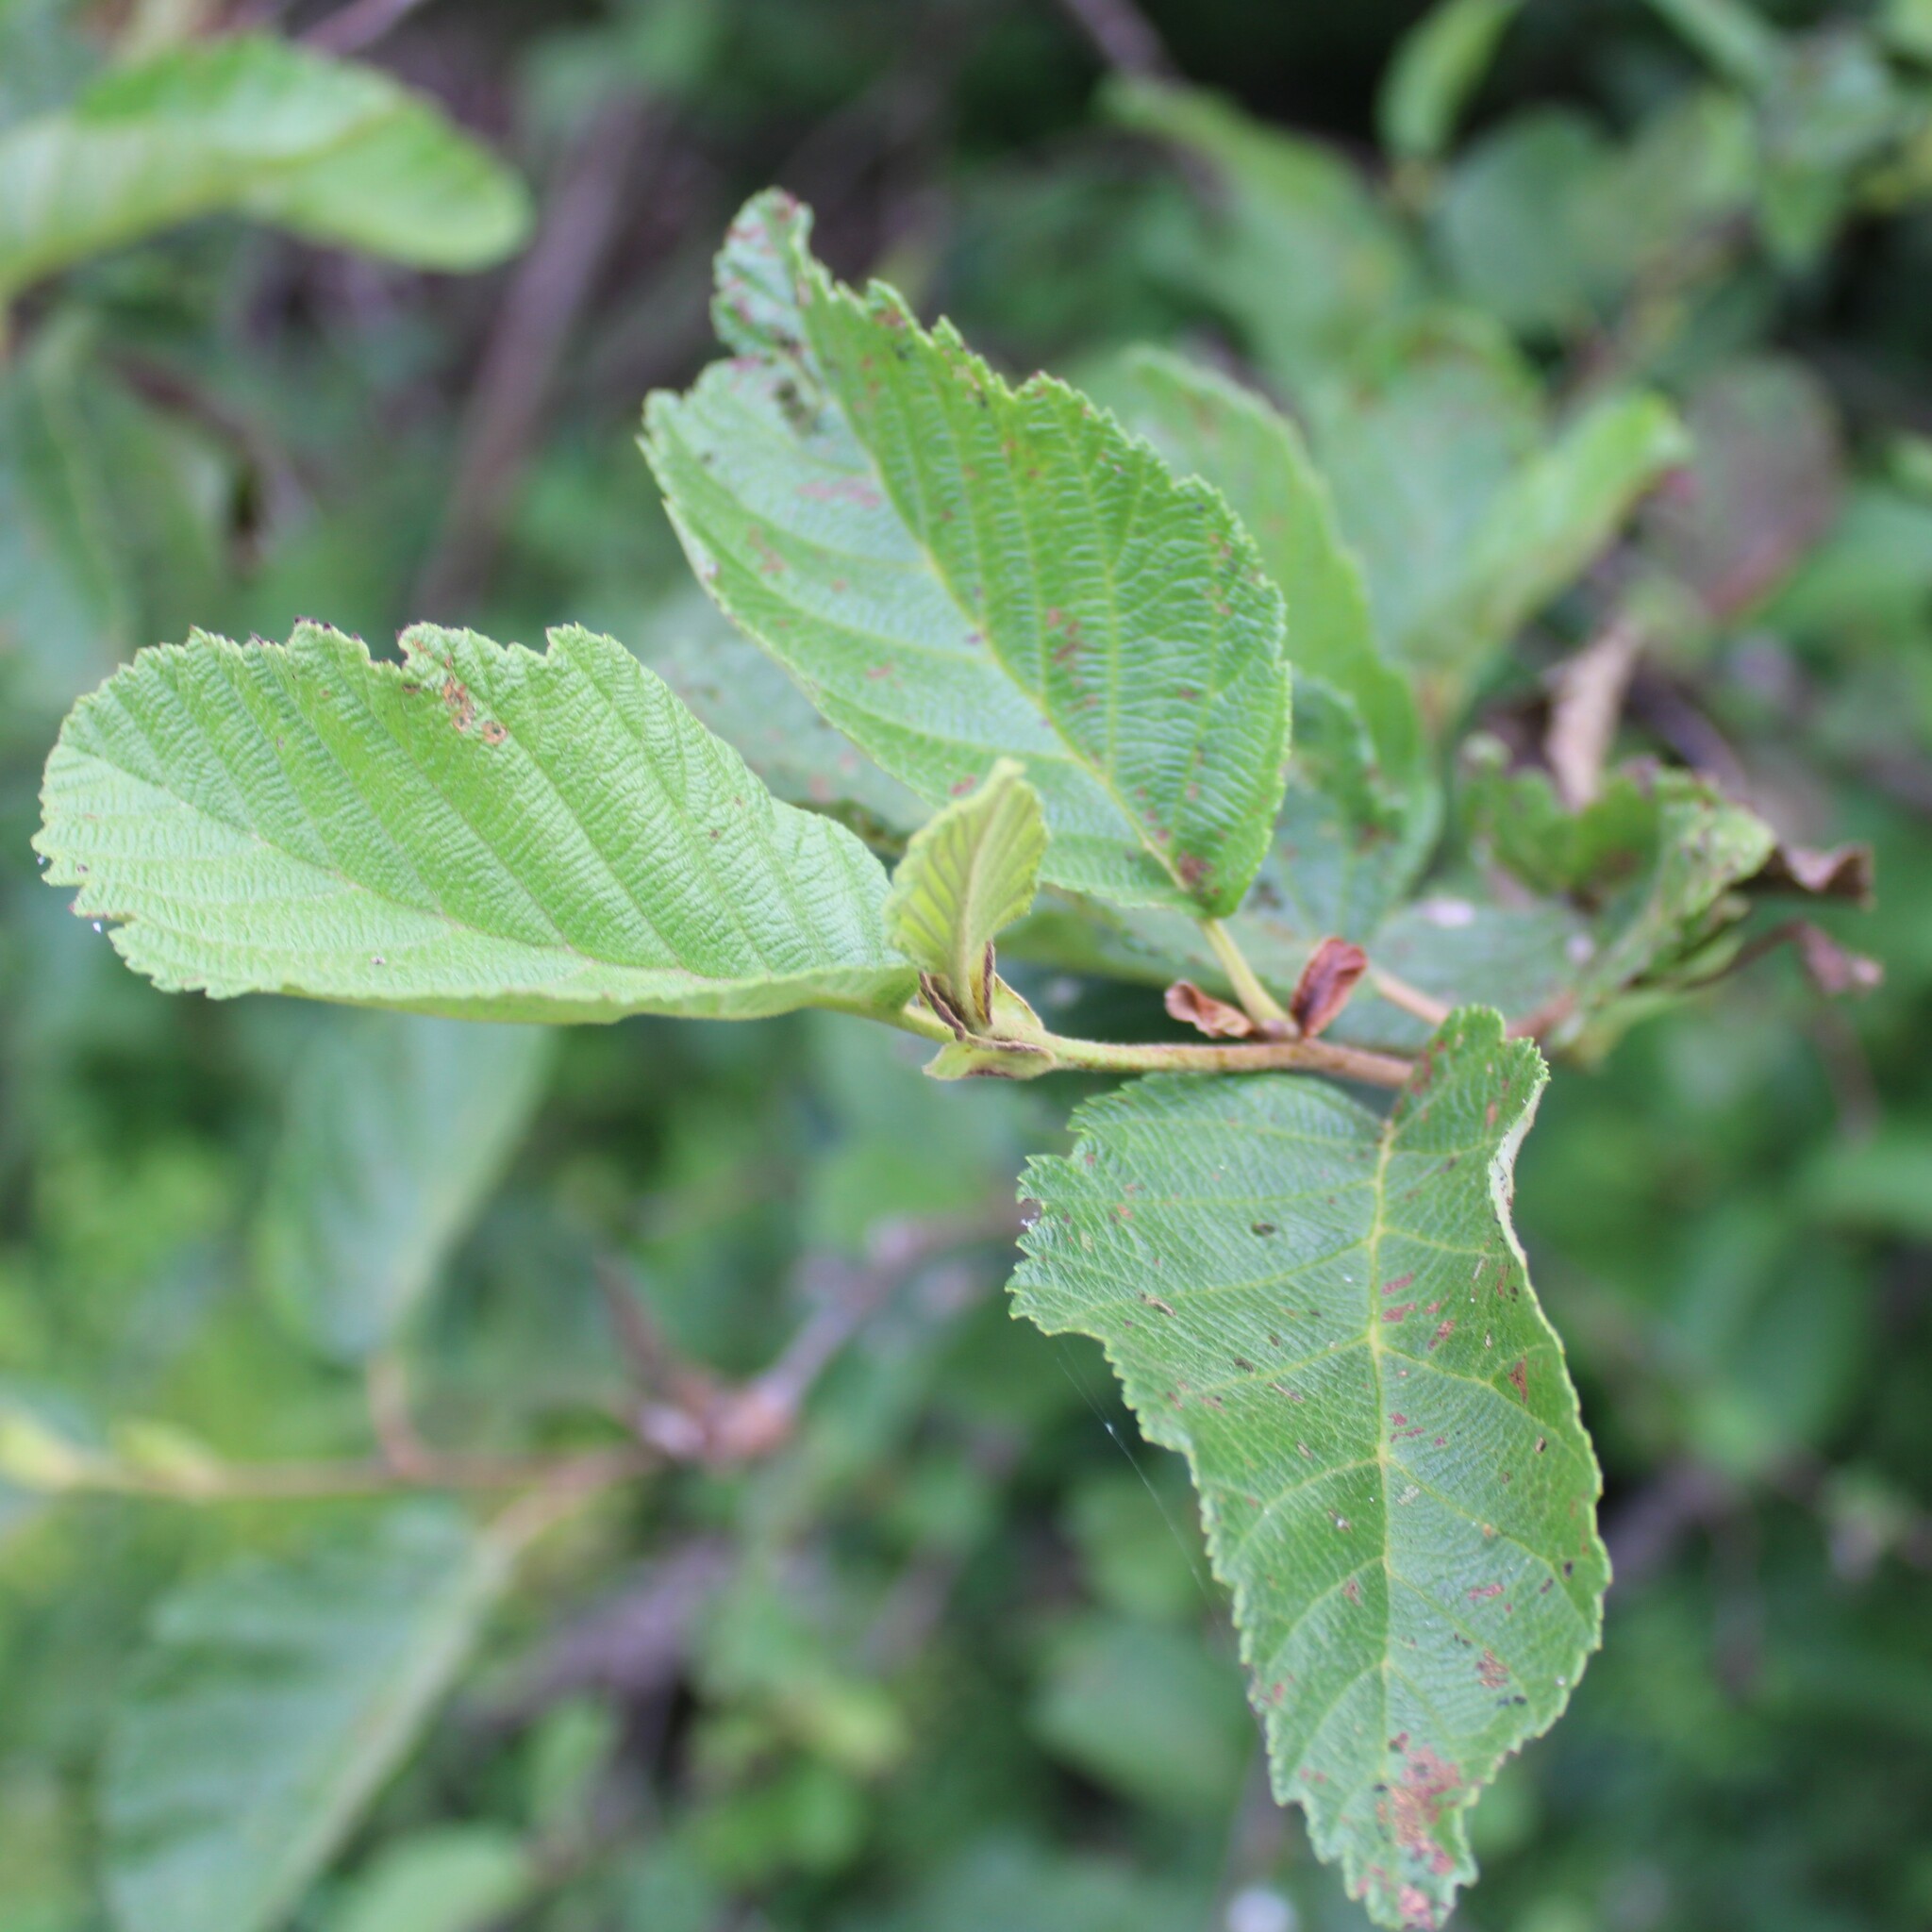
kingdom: Plantae
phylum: Tracheophyta
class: Magnoliopsida
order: Fagales
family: Betulaceae
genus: Alnus
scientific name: Alnus incana
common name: Grey alder
